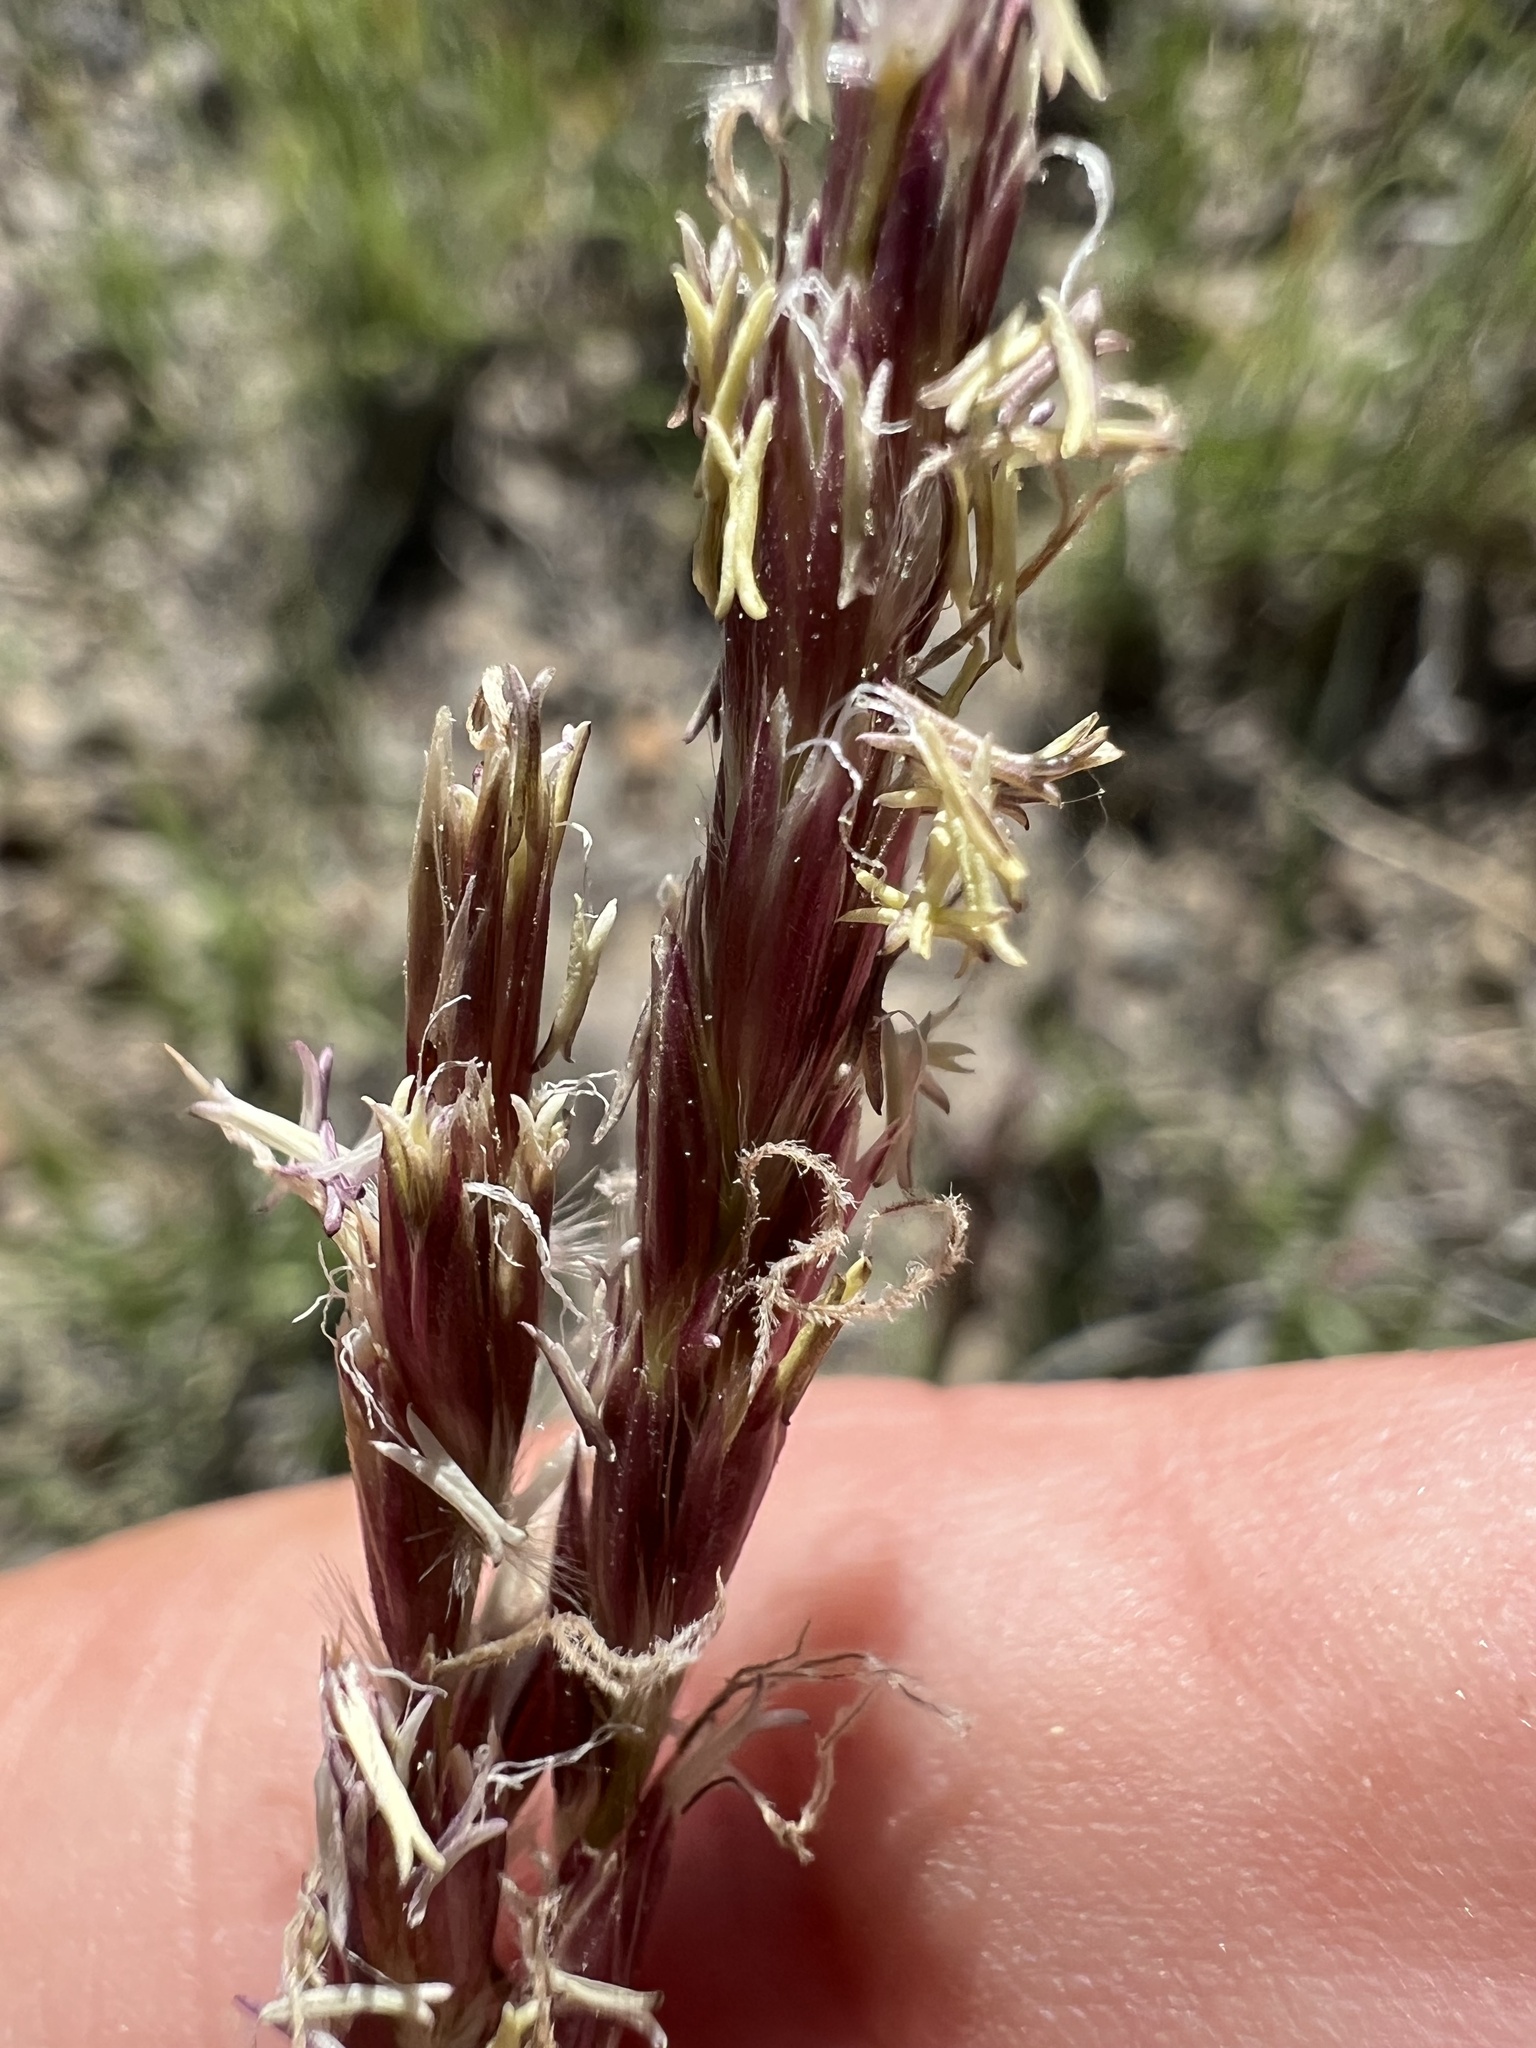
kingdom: Plantae
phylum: Tracheophyta
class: Liliopsida
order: Poales
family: Poaceae
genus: Hilaria
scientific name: Hilaria jamesii
